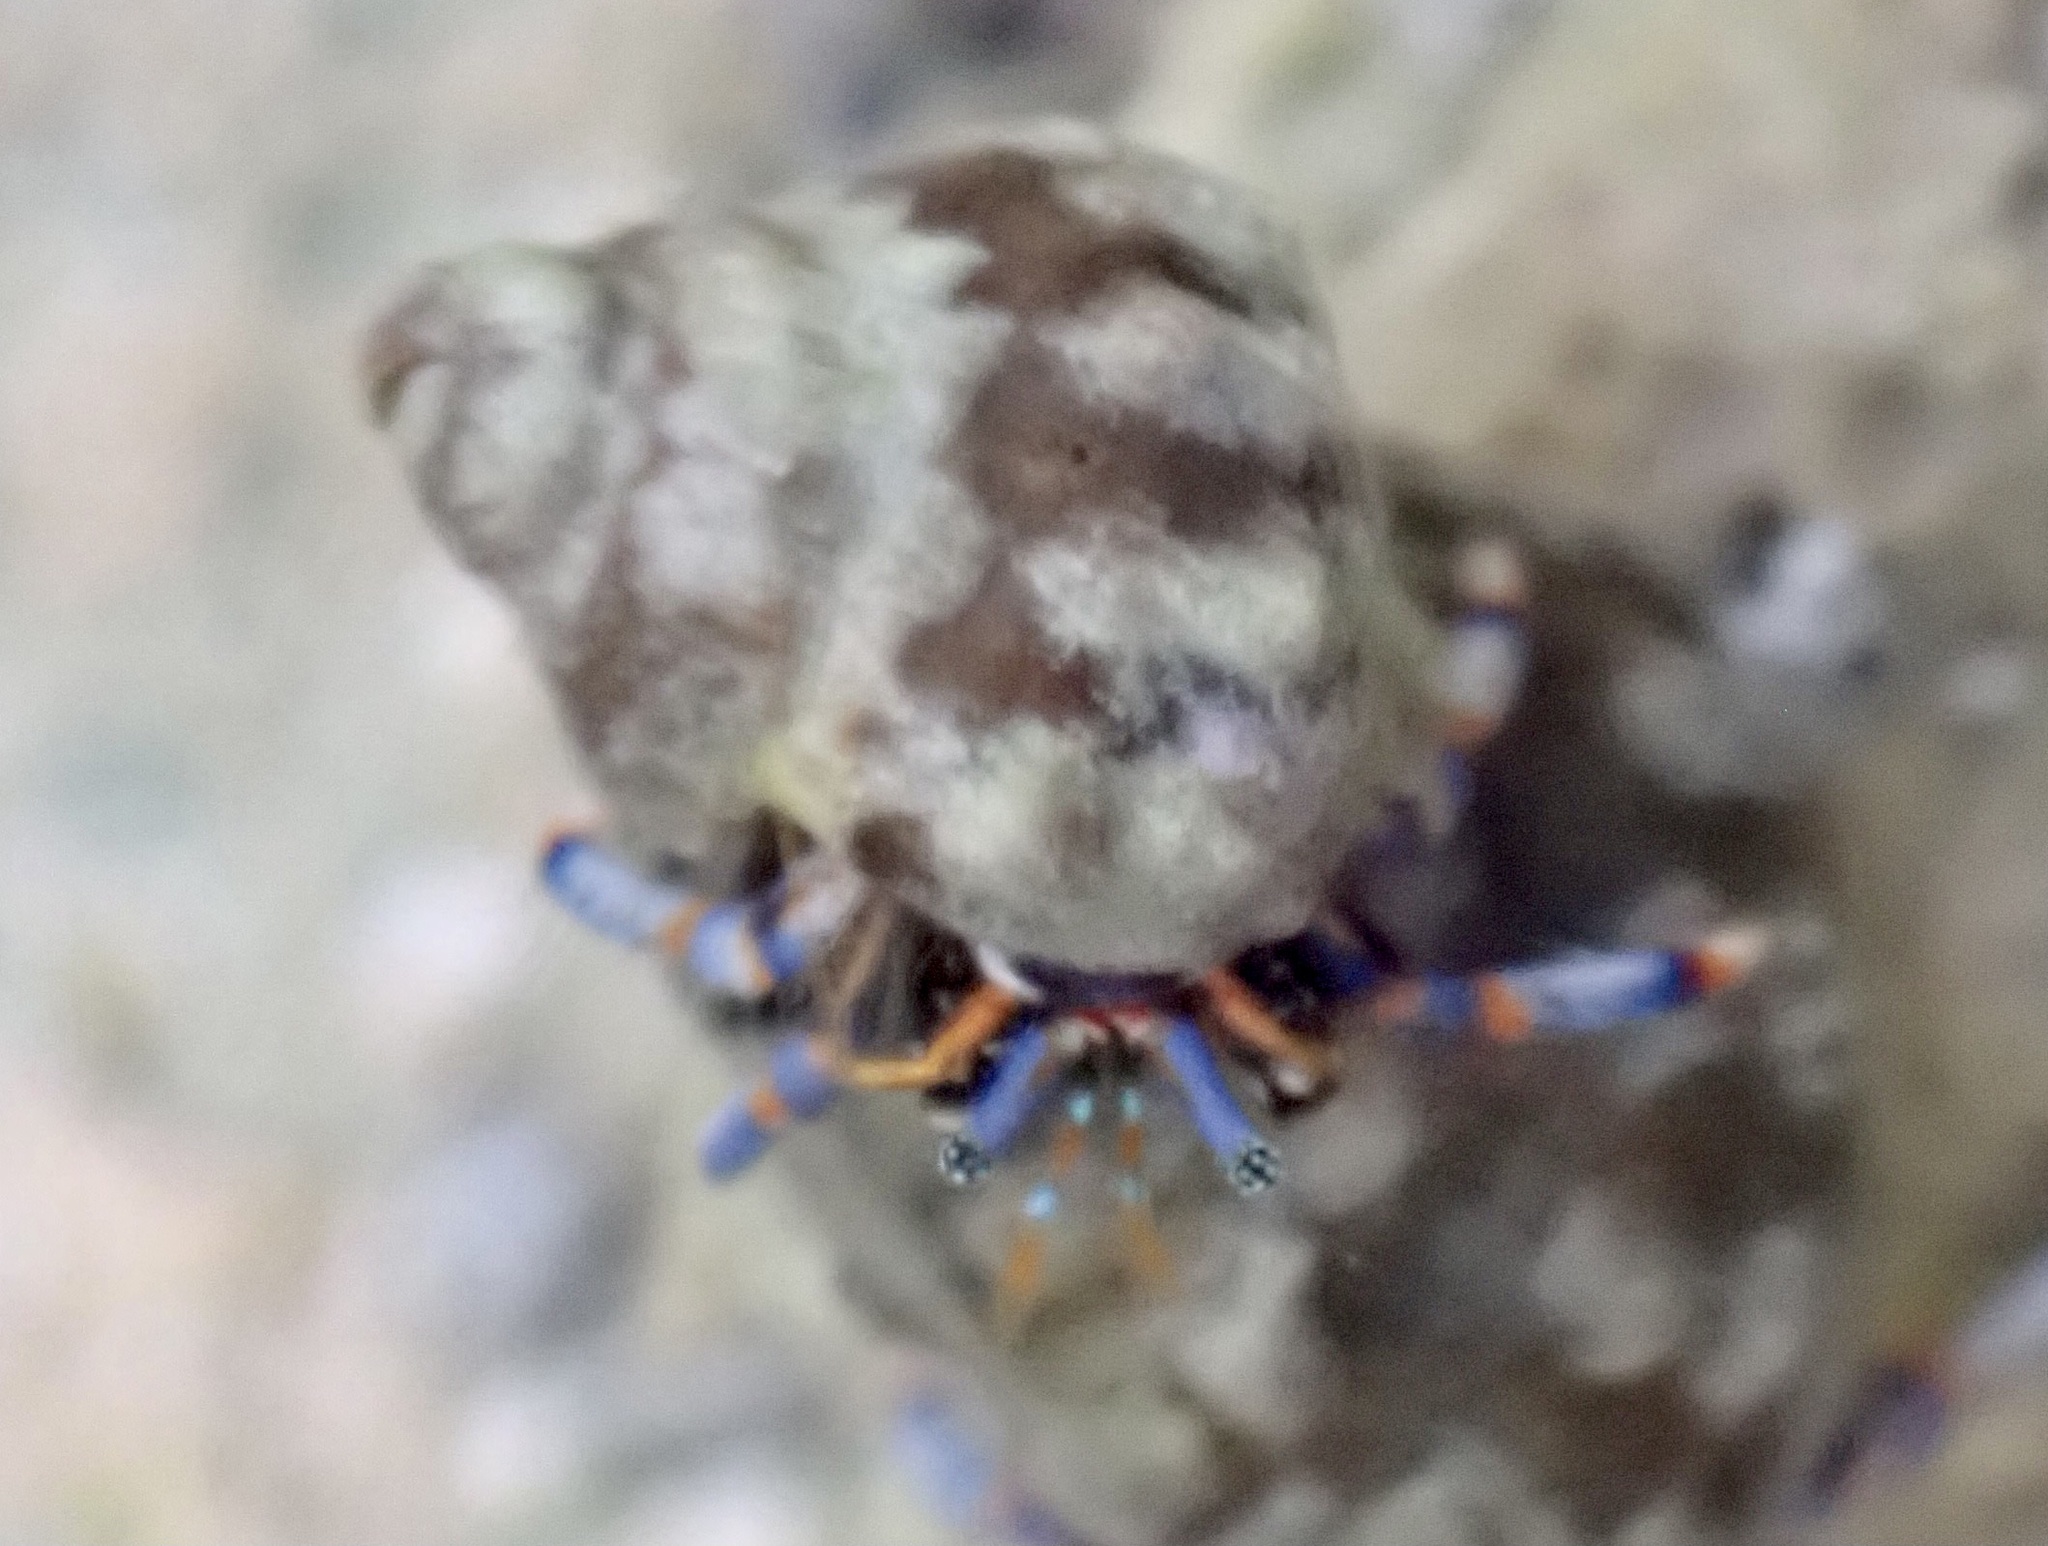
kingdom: Animalia
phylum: Arthropoda
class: Malacostraca
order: Decapoda
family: Diogenidae
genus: Clibanarius
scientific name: Clibanarius tricolor
